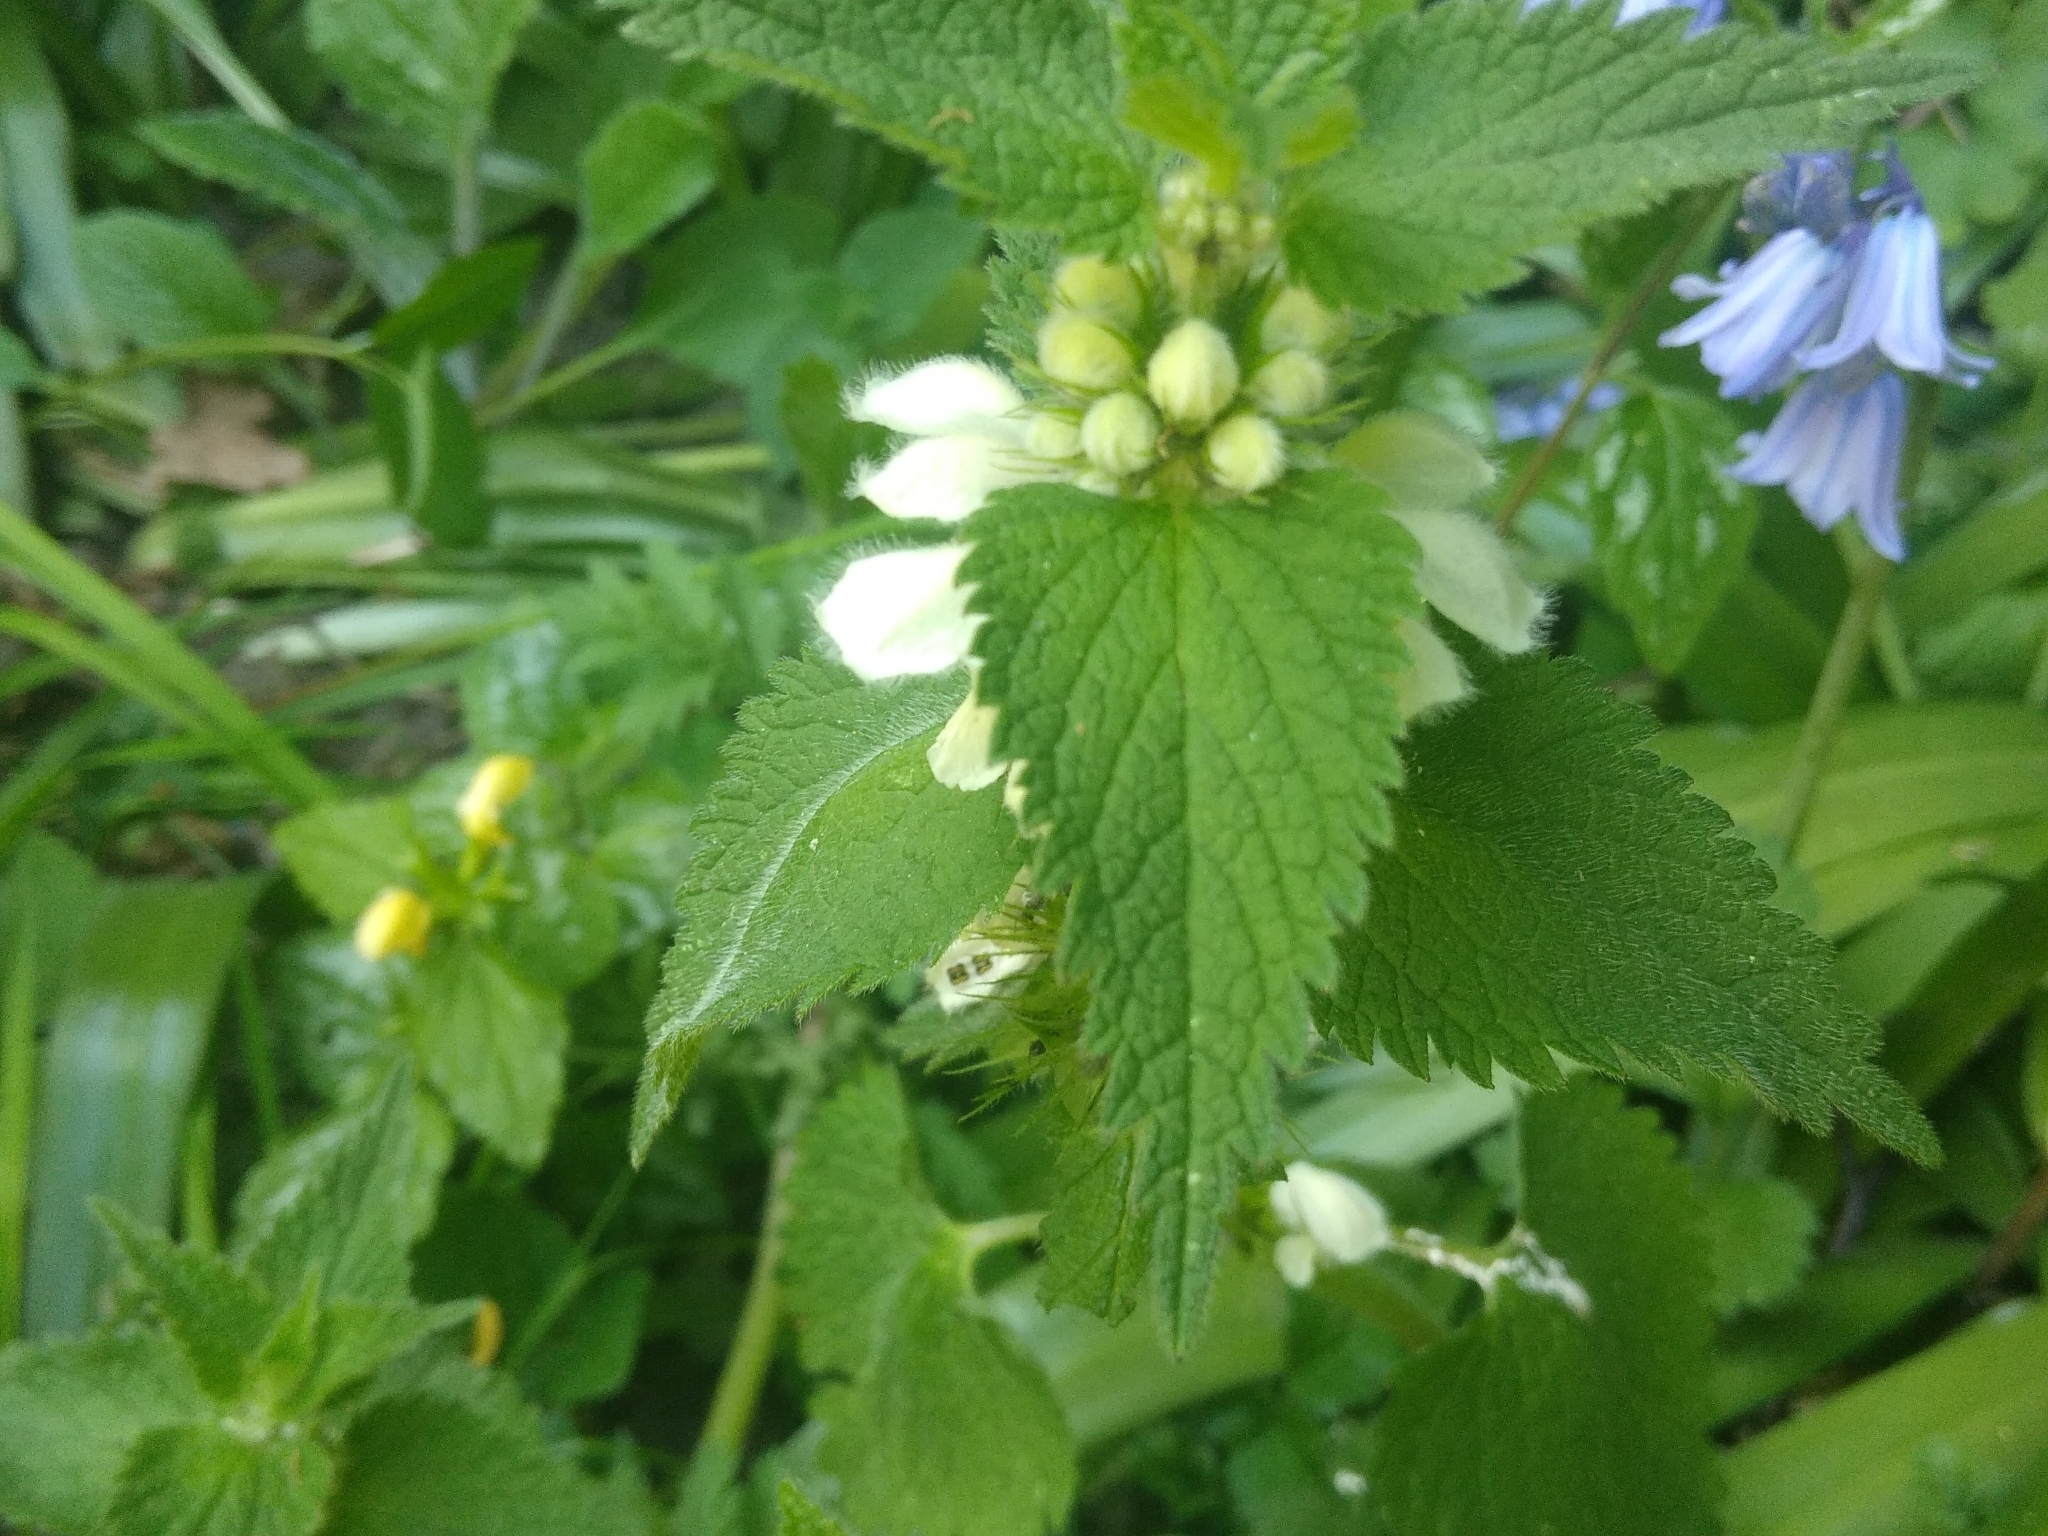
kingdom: Plantae
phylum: Tracheophyta
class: Magnoliopsida
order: Lamiales
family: Lamiaceae
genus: Lamium
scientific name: Lamium album
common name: White dead-nettle
